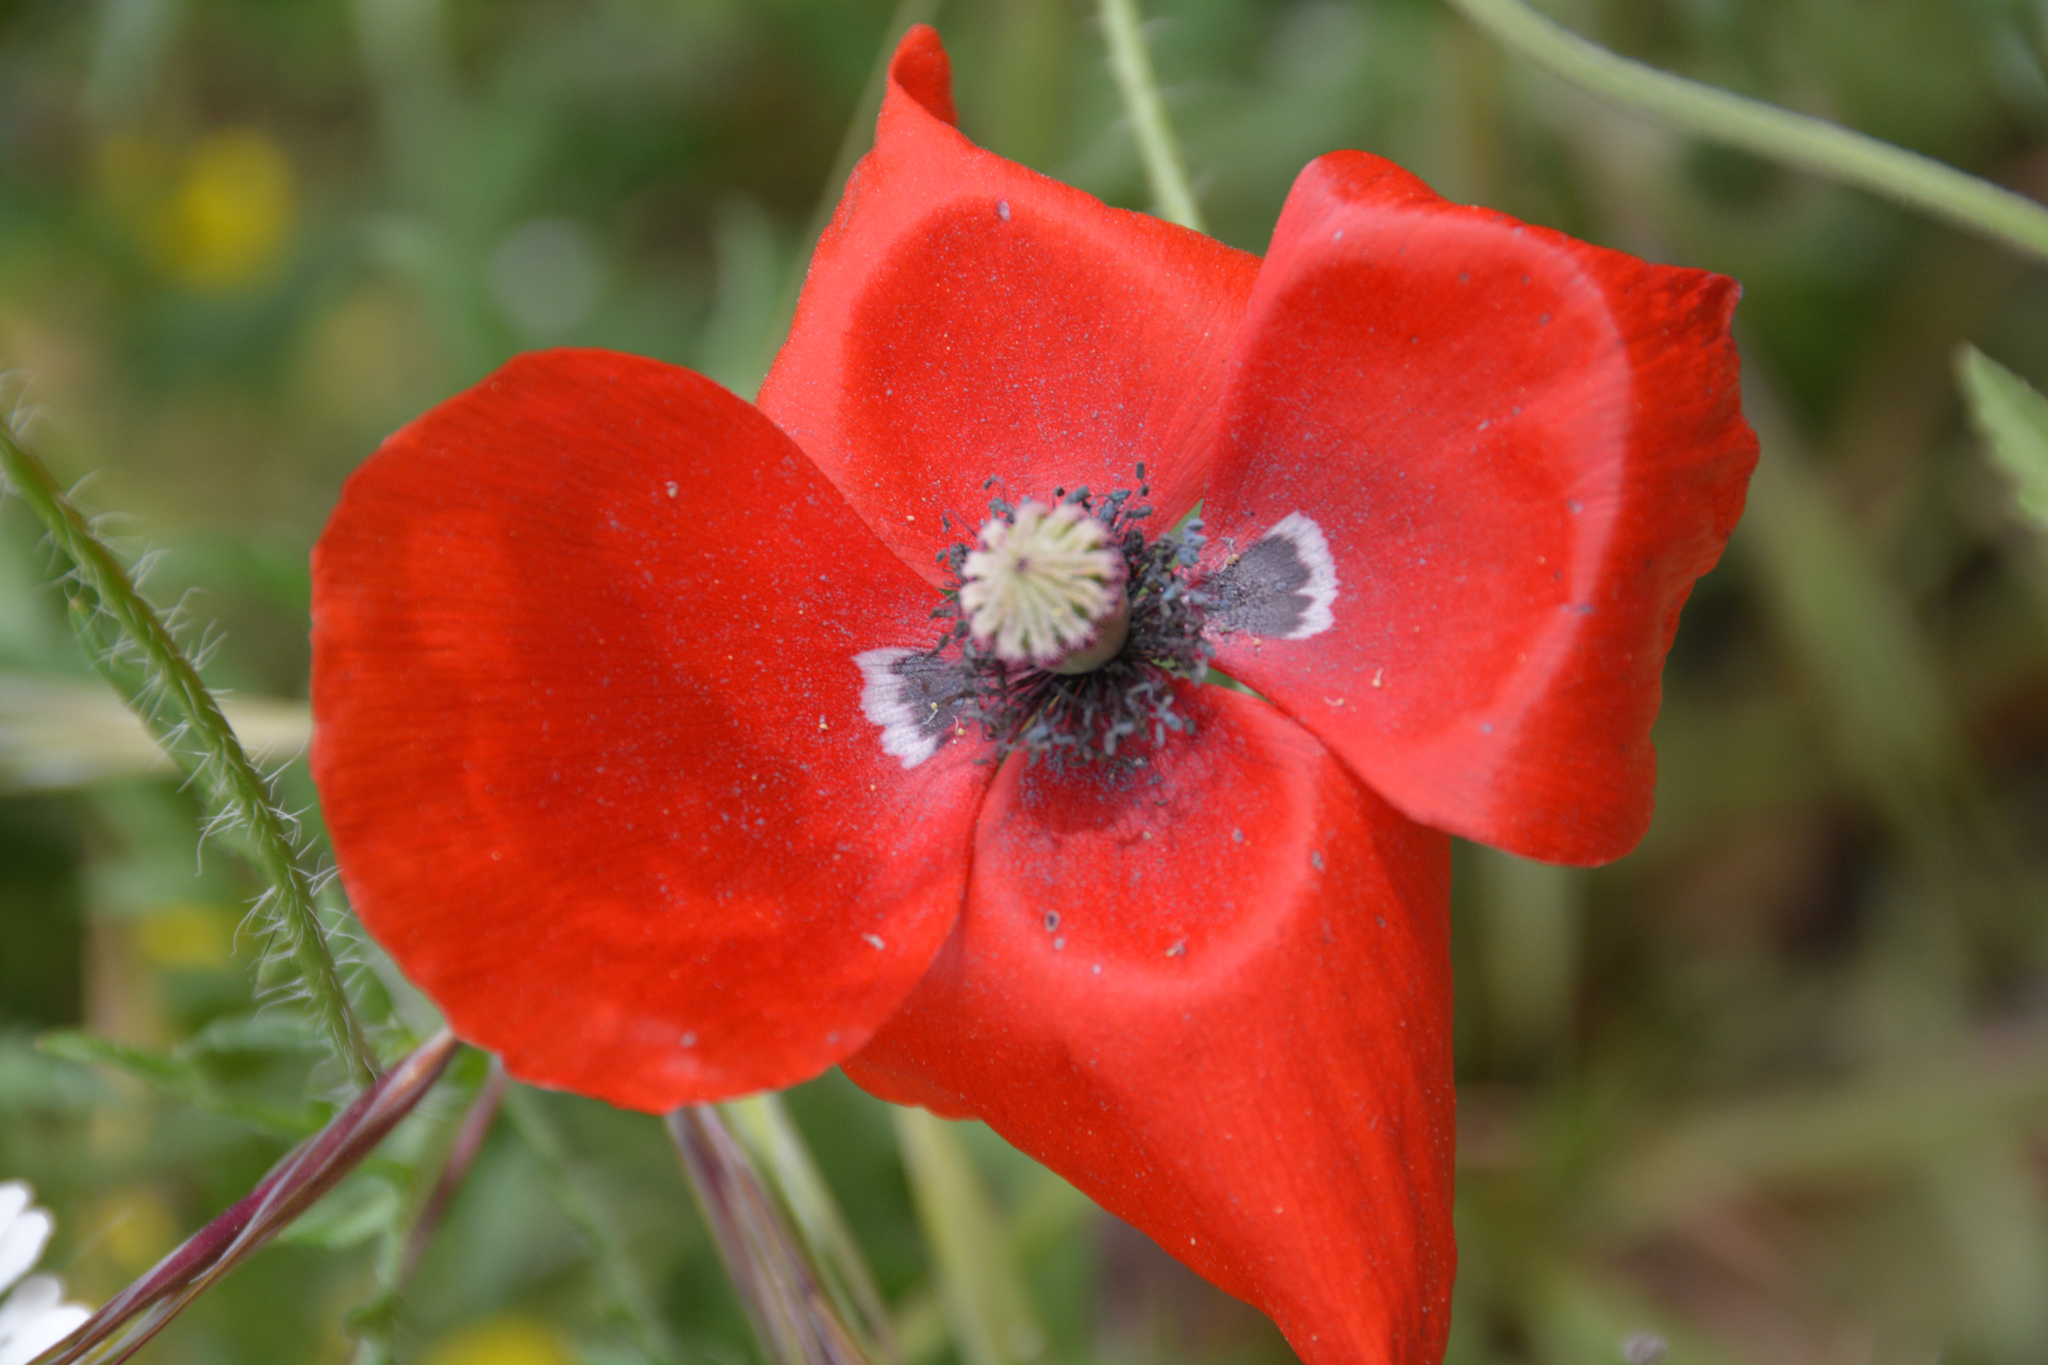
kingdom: Plantae
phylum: Tracheophyta
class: Magnoliopsida
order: Ranunculales
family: Papaveraceae
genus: Papaver
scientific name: Papaver rhoeas
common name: Corn poppy
